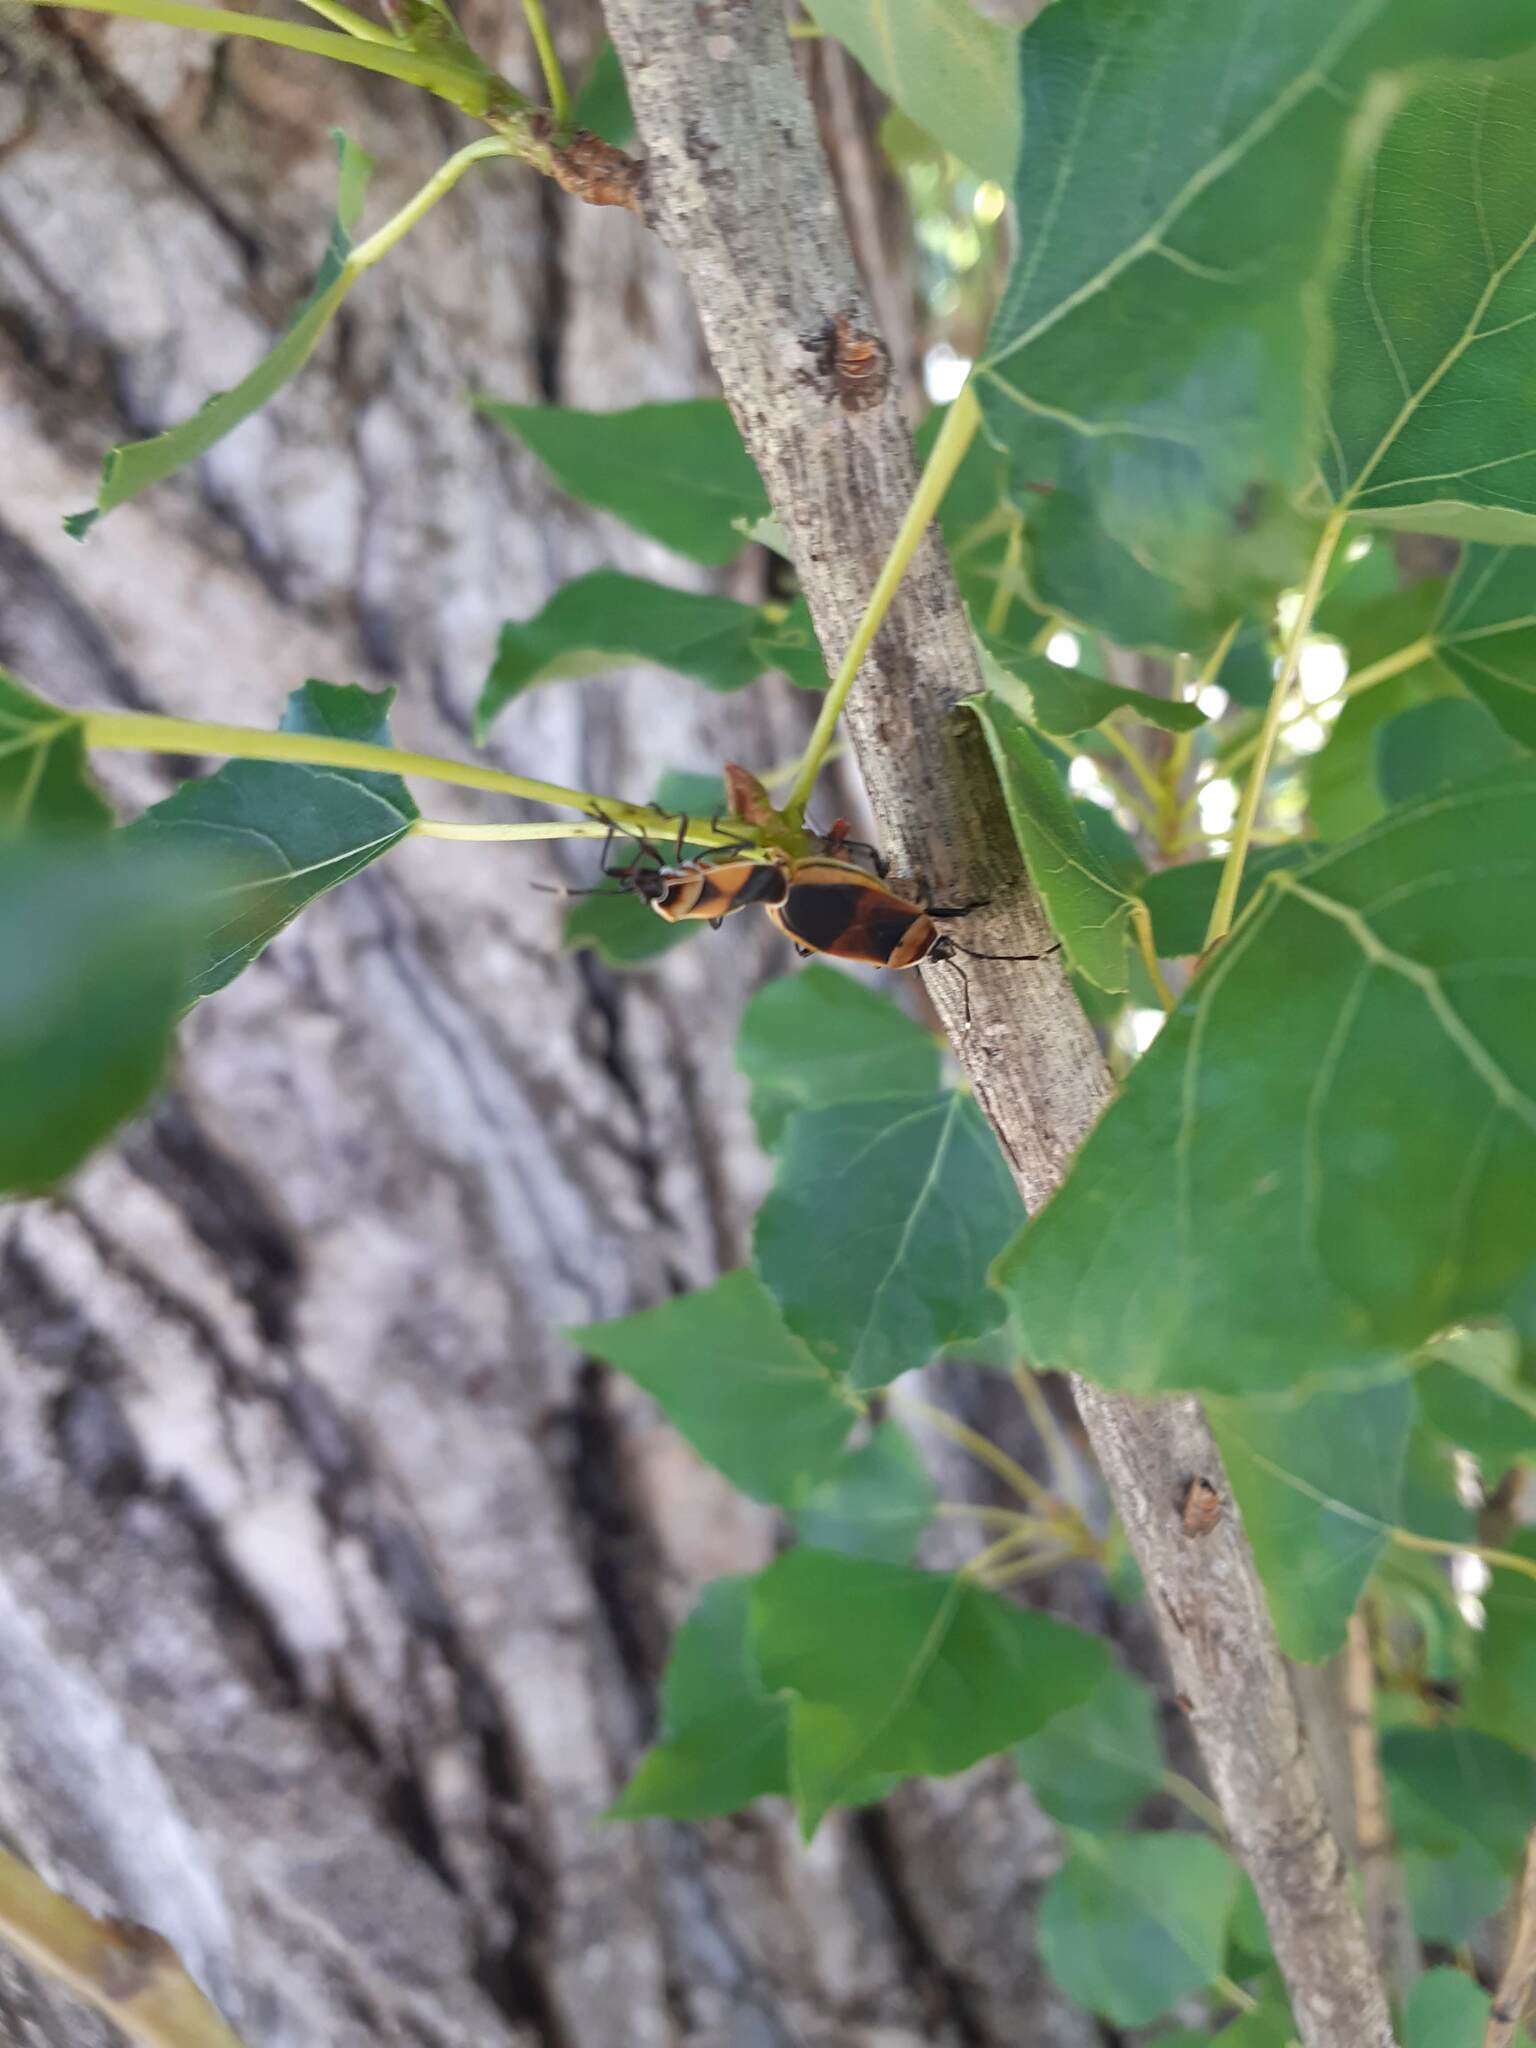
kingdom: Animalia
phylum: Arthropoda
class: Insecta
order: Hemiptera
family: Pyrrhocoridae
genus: Dindymus
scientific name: Dindymus
